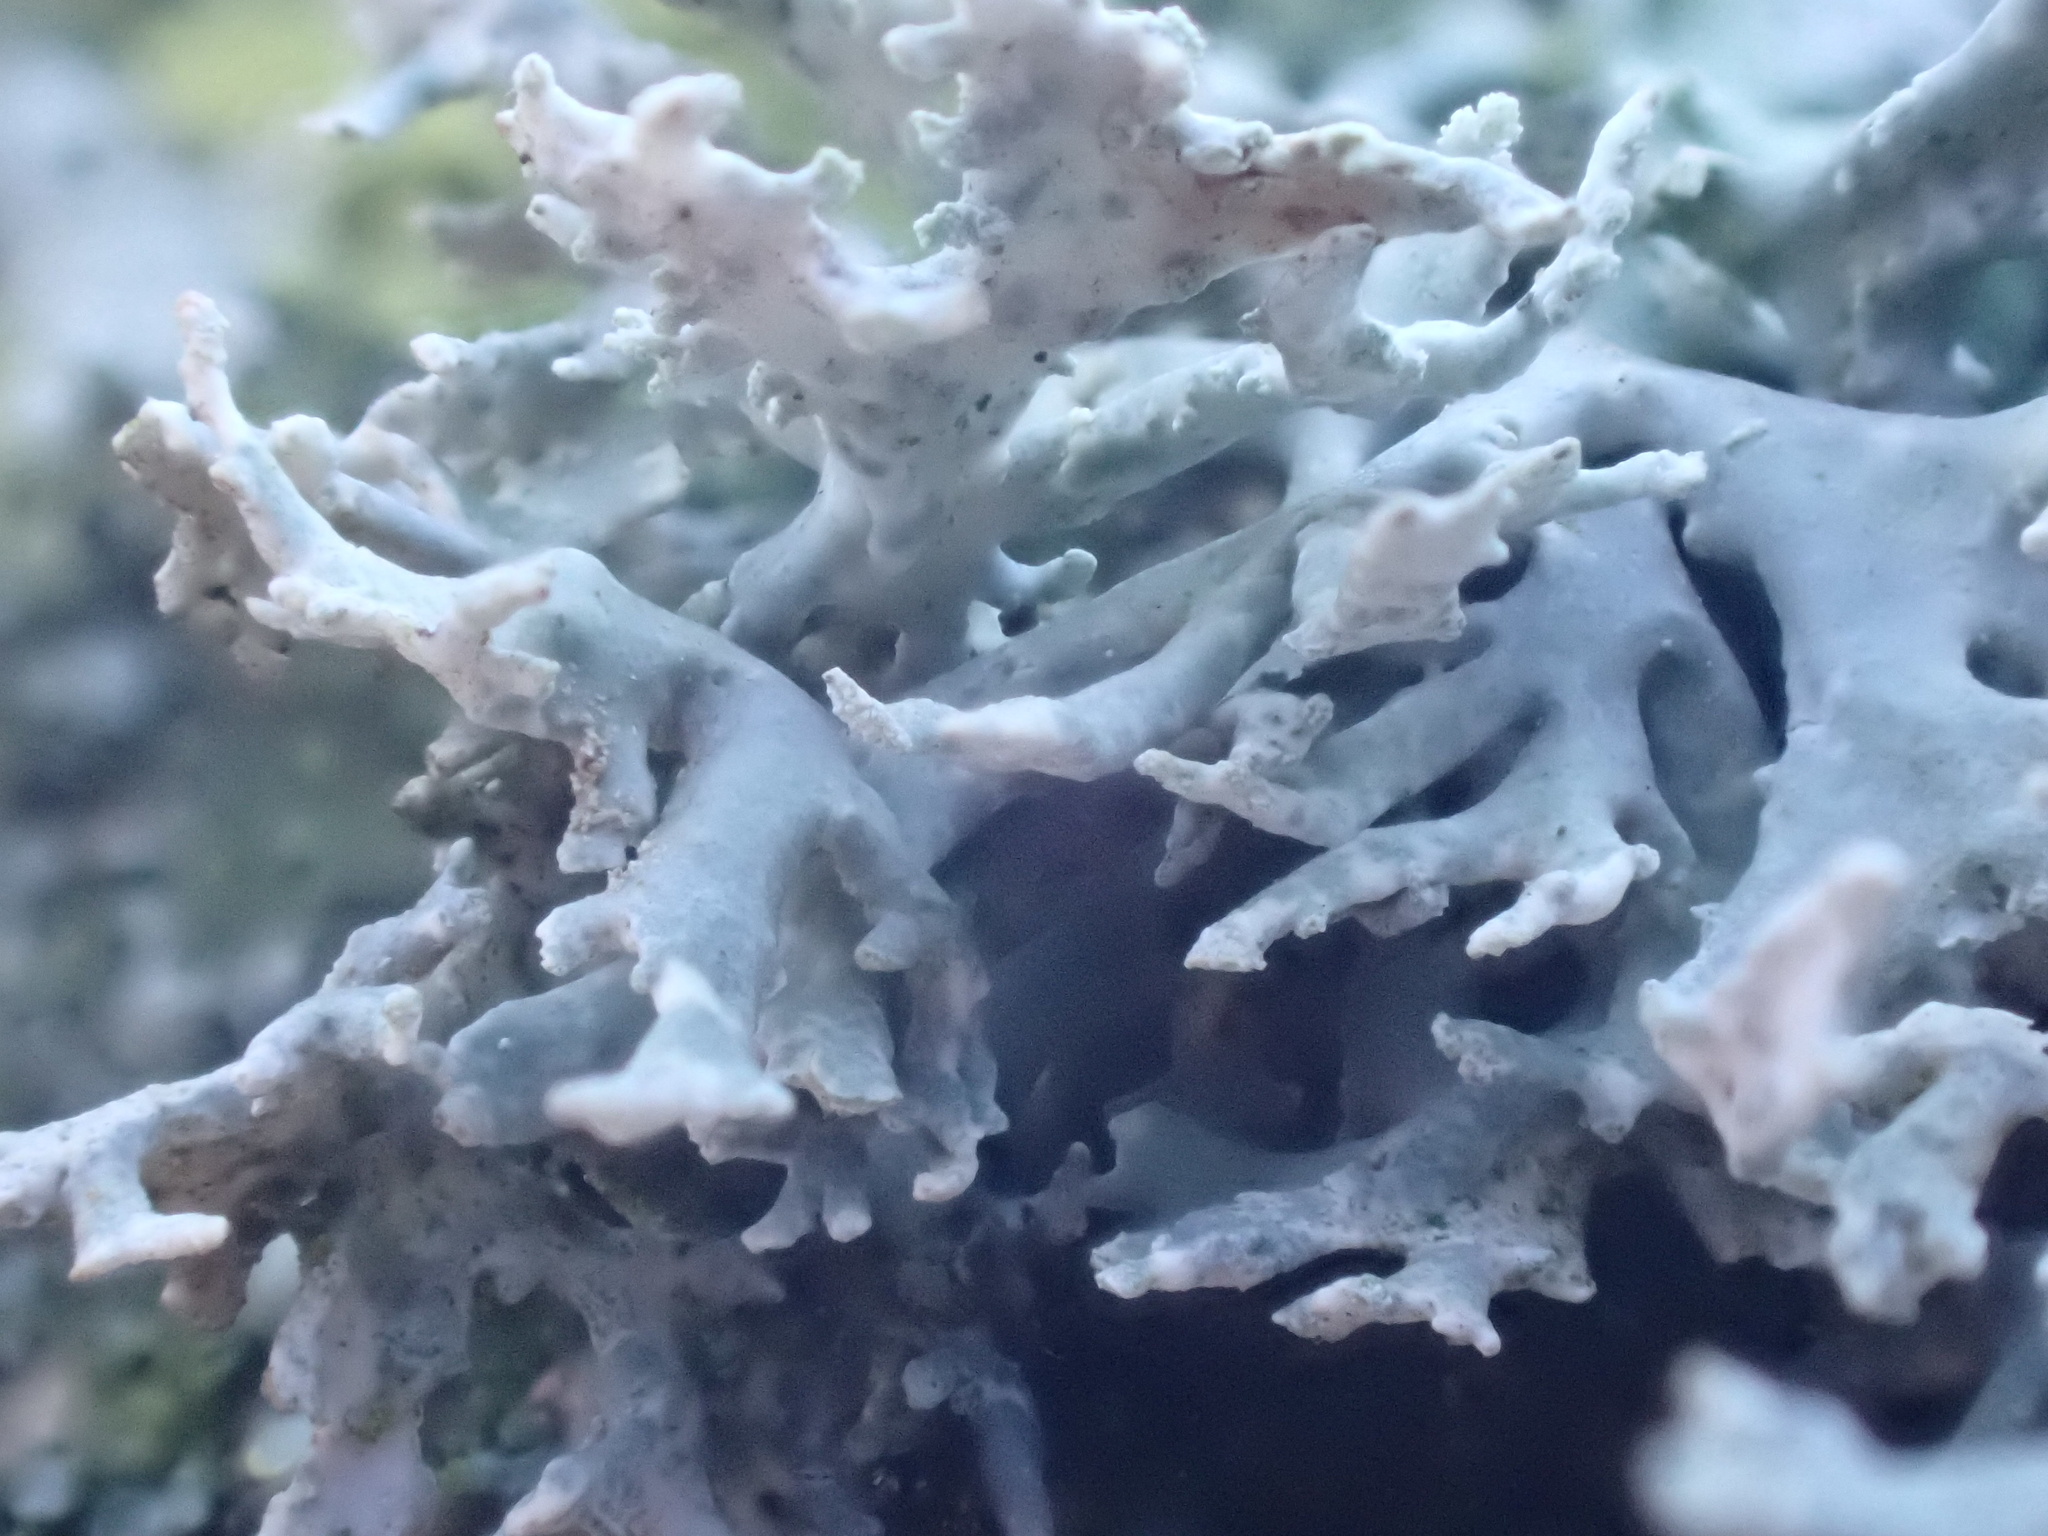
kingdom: Fungi
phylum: Ascomycota
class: Lecanoromycetes
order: Lecanorales
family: Parmeliaceae
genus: Evernia
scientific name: Evernia prunastri
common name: Oak moss
